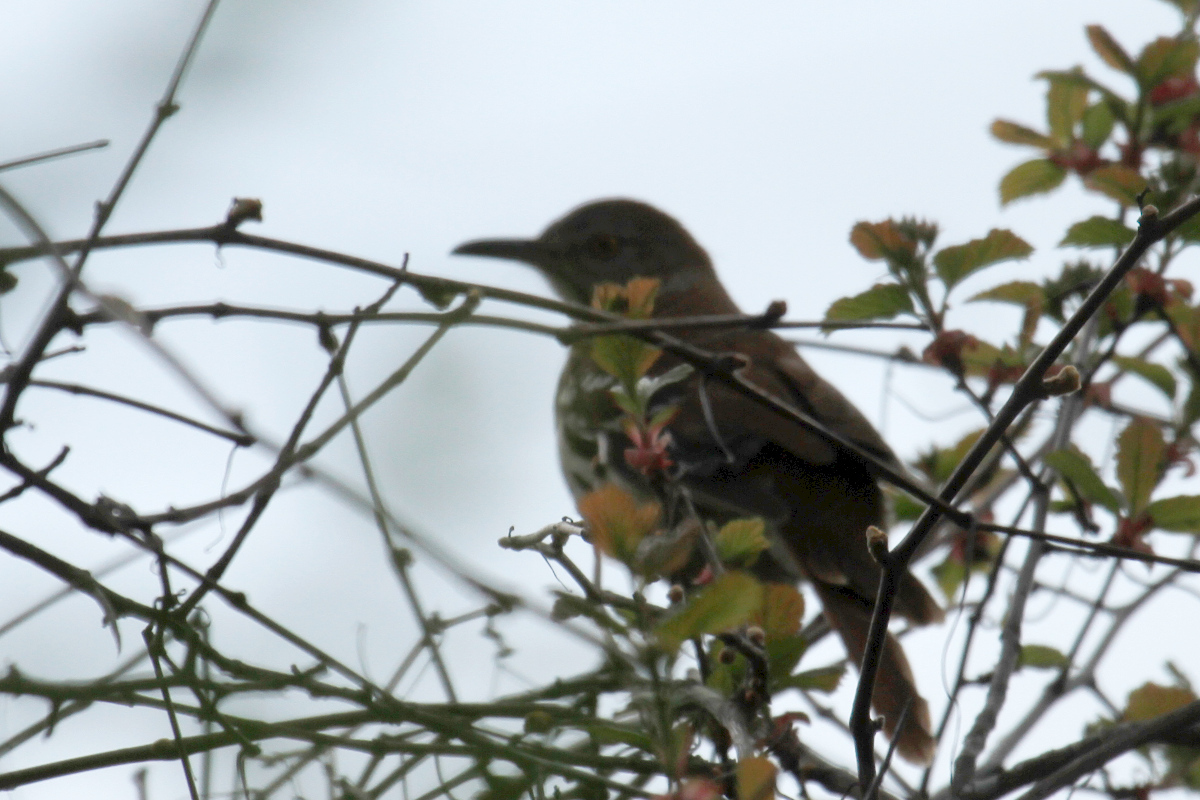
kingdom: Animalia
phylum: Chordata
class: Aves
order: Passeriformes
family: Mimidae
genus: Toxostoma
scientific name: Toxostoma rufum
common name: Brown thrasher
